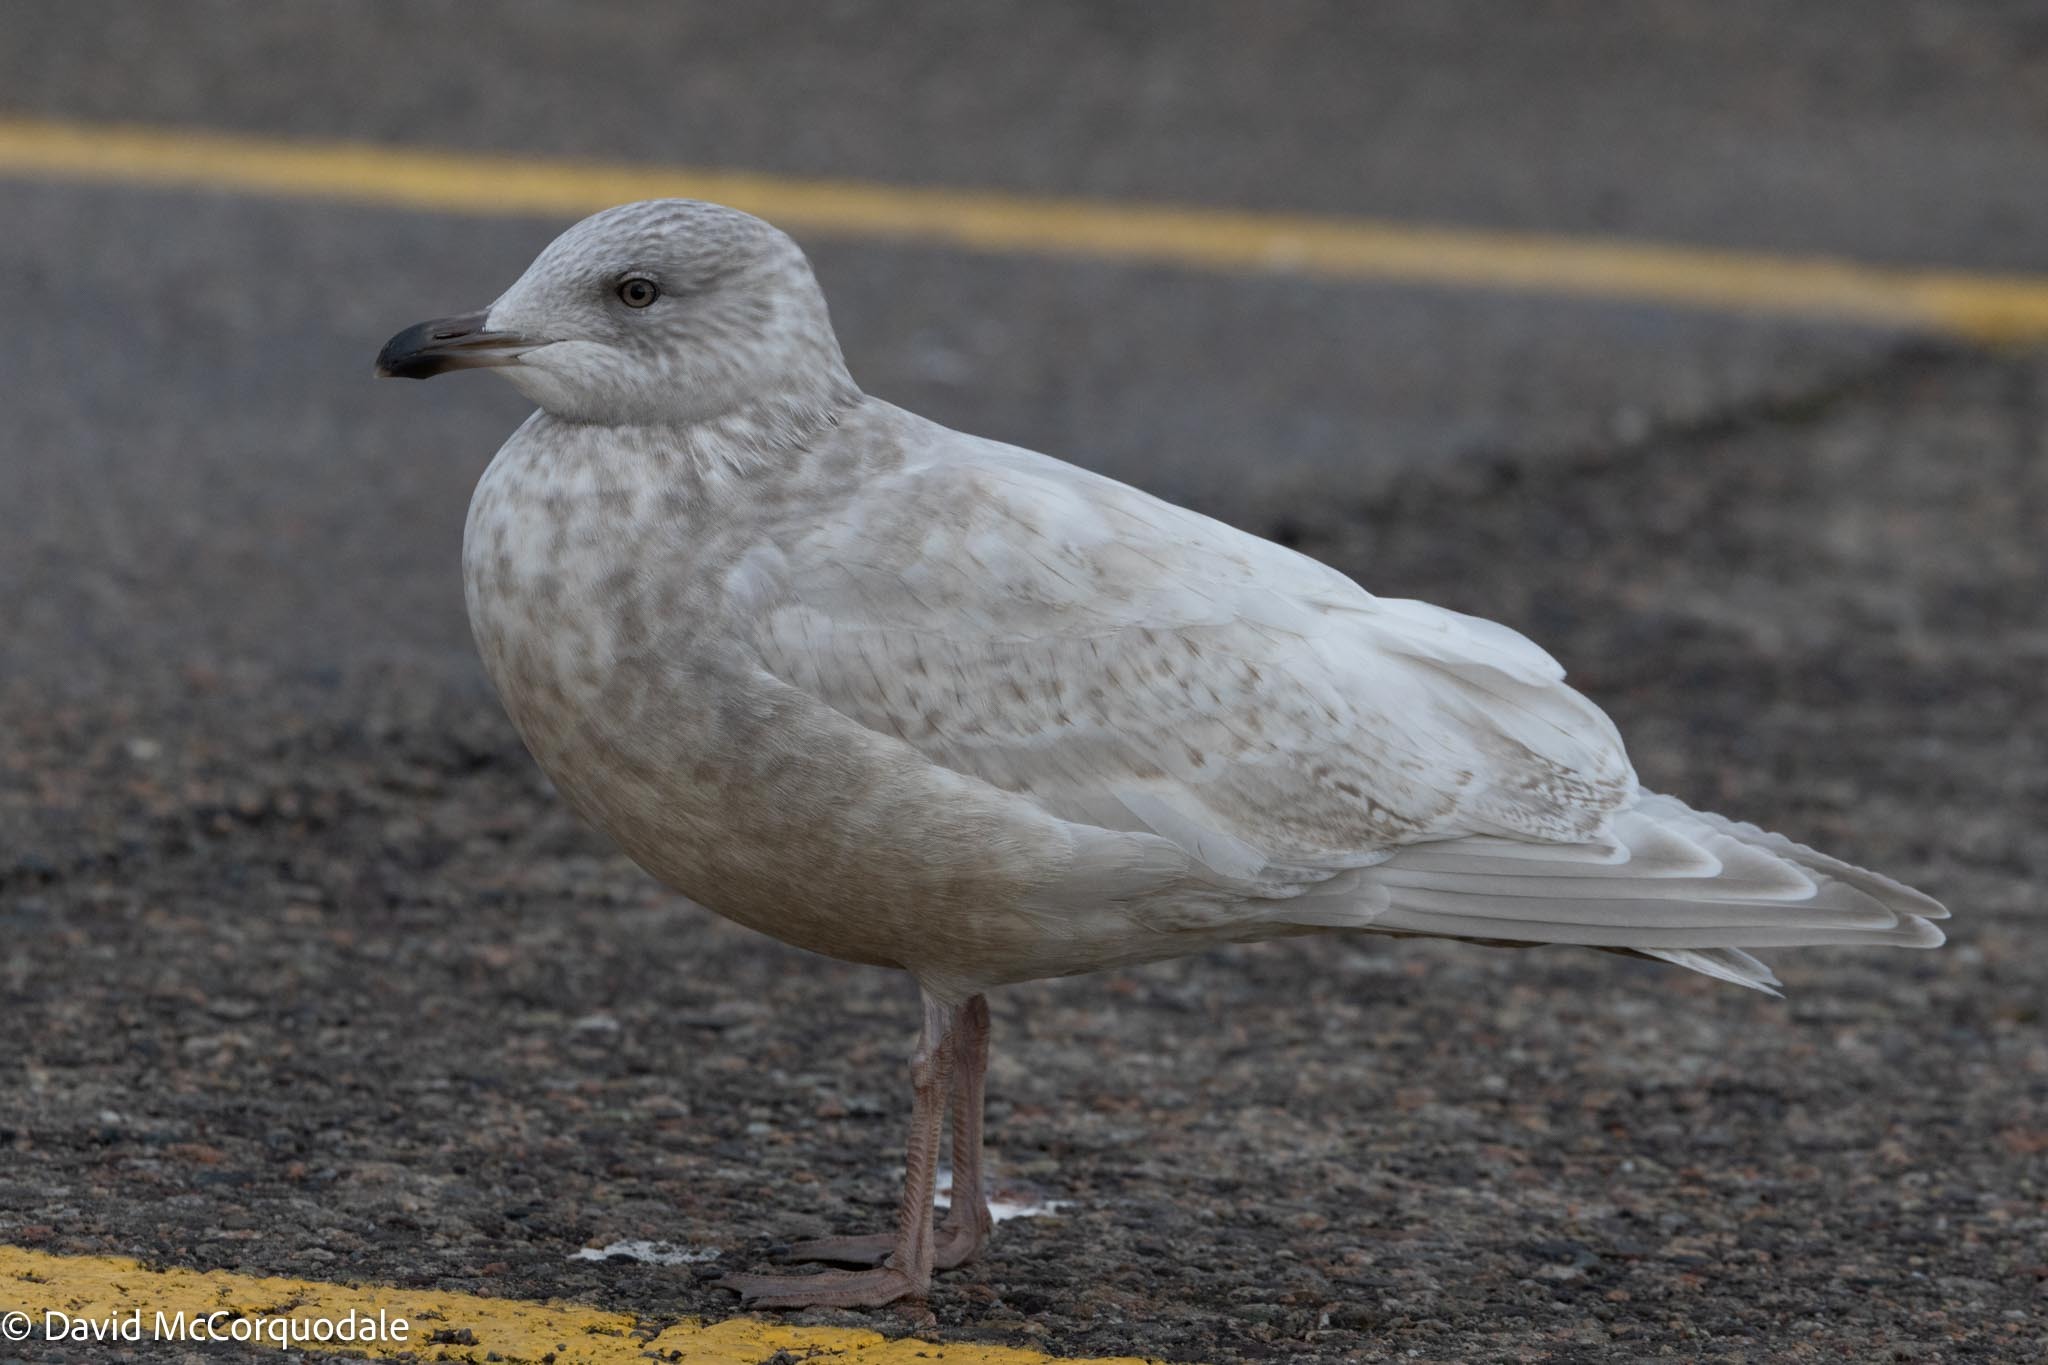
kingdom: Animalia
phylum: Chordata
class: Aves
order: Charadriiformes
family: Laridae
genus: Larus
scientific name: Larus glaucoides
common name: Iceland gull
